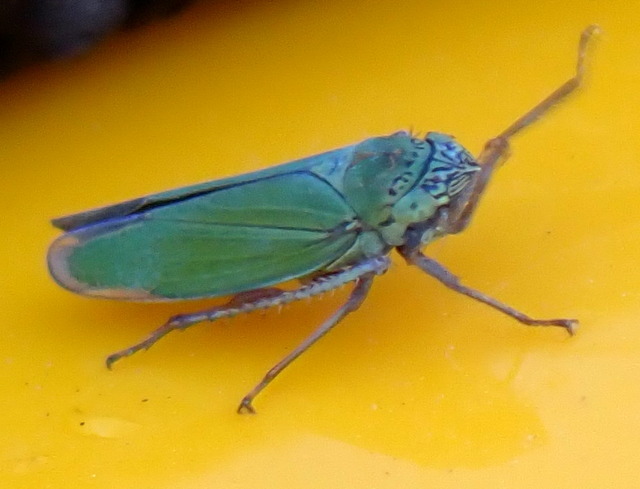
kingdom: Animalia
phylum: Arthropoda
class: Insecta
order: Hemiptera
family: Cicadellidae
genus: Draeculacephala
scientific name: Draeculacephala inscripta
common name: Leafhopper
